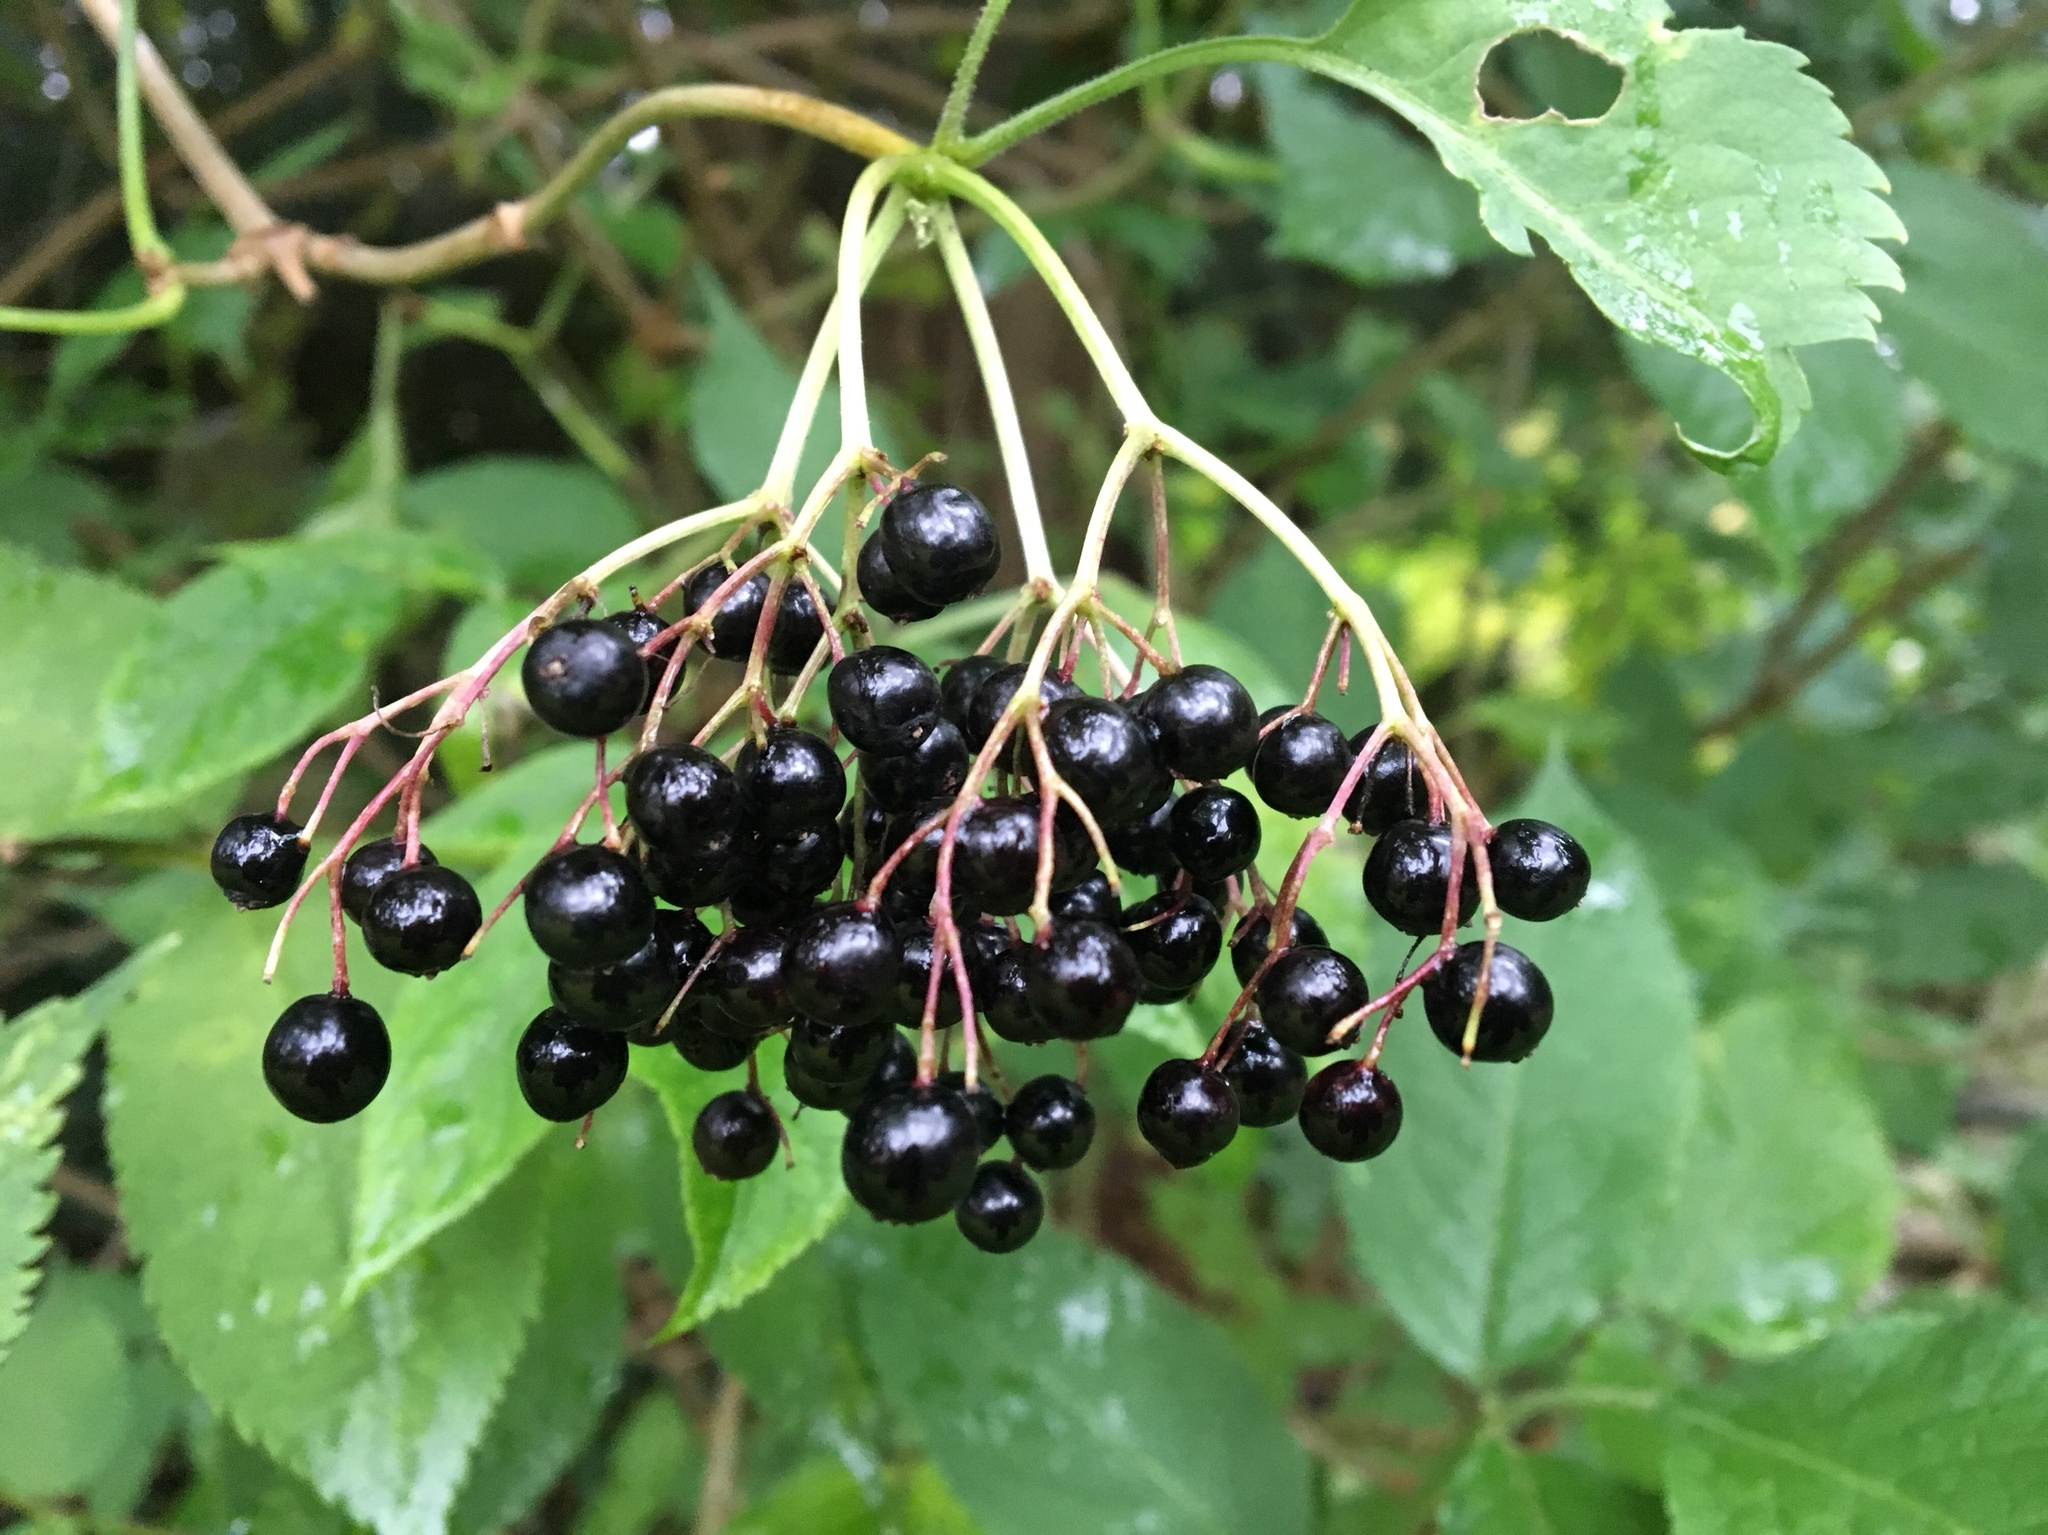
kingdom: Plantae
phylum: Tracheophyta
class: Magnoliopsida
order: Dipsacales
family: Viburnaceae
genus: Sambucus
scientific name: Sambucus nigra
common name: Elder
